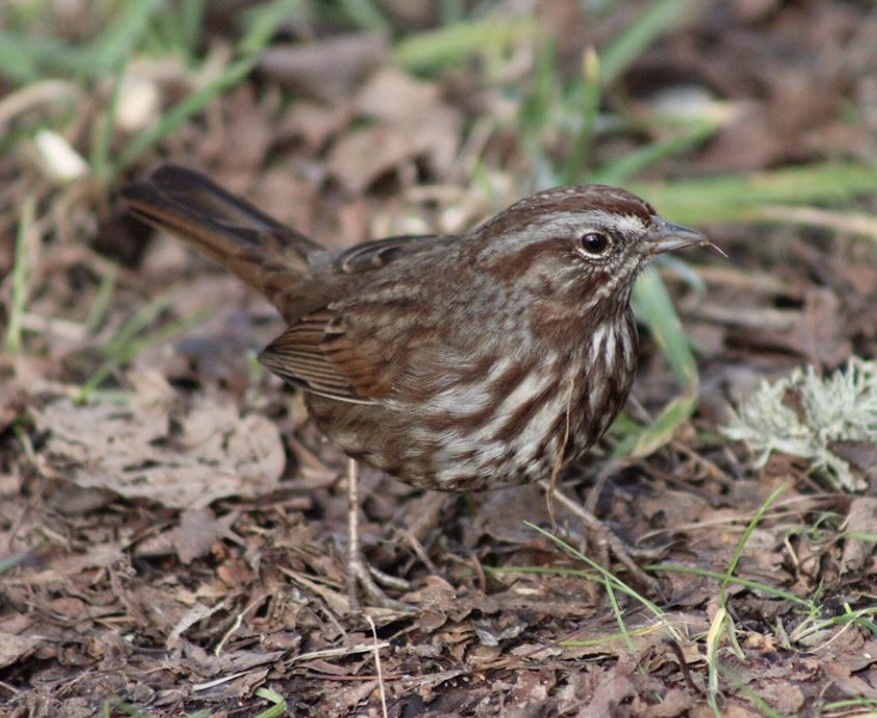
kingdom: Animalia
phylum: Chordata
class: Aves
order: Passeriformes
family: Passerellidae
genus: Melospiza
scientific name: Melospiza melodia
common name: Song sparrow
